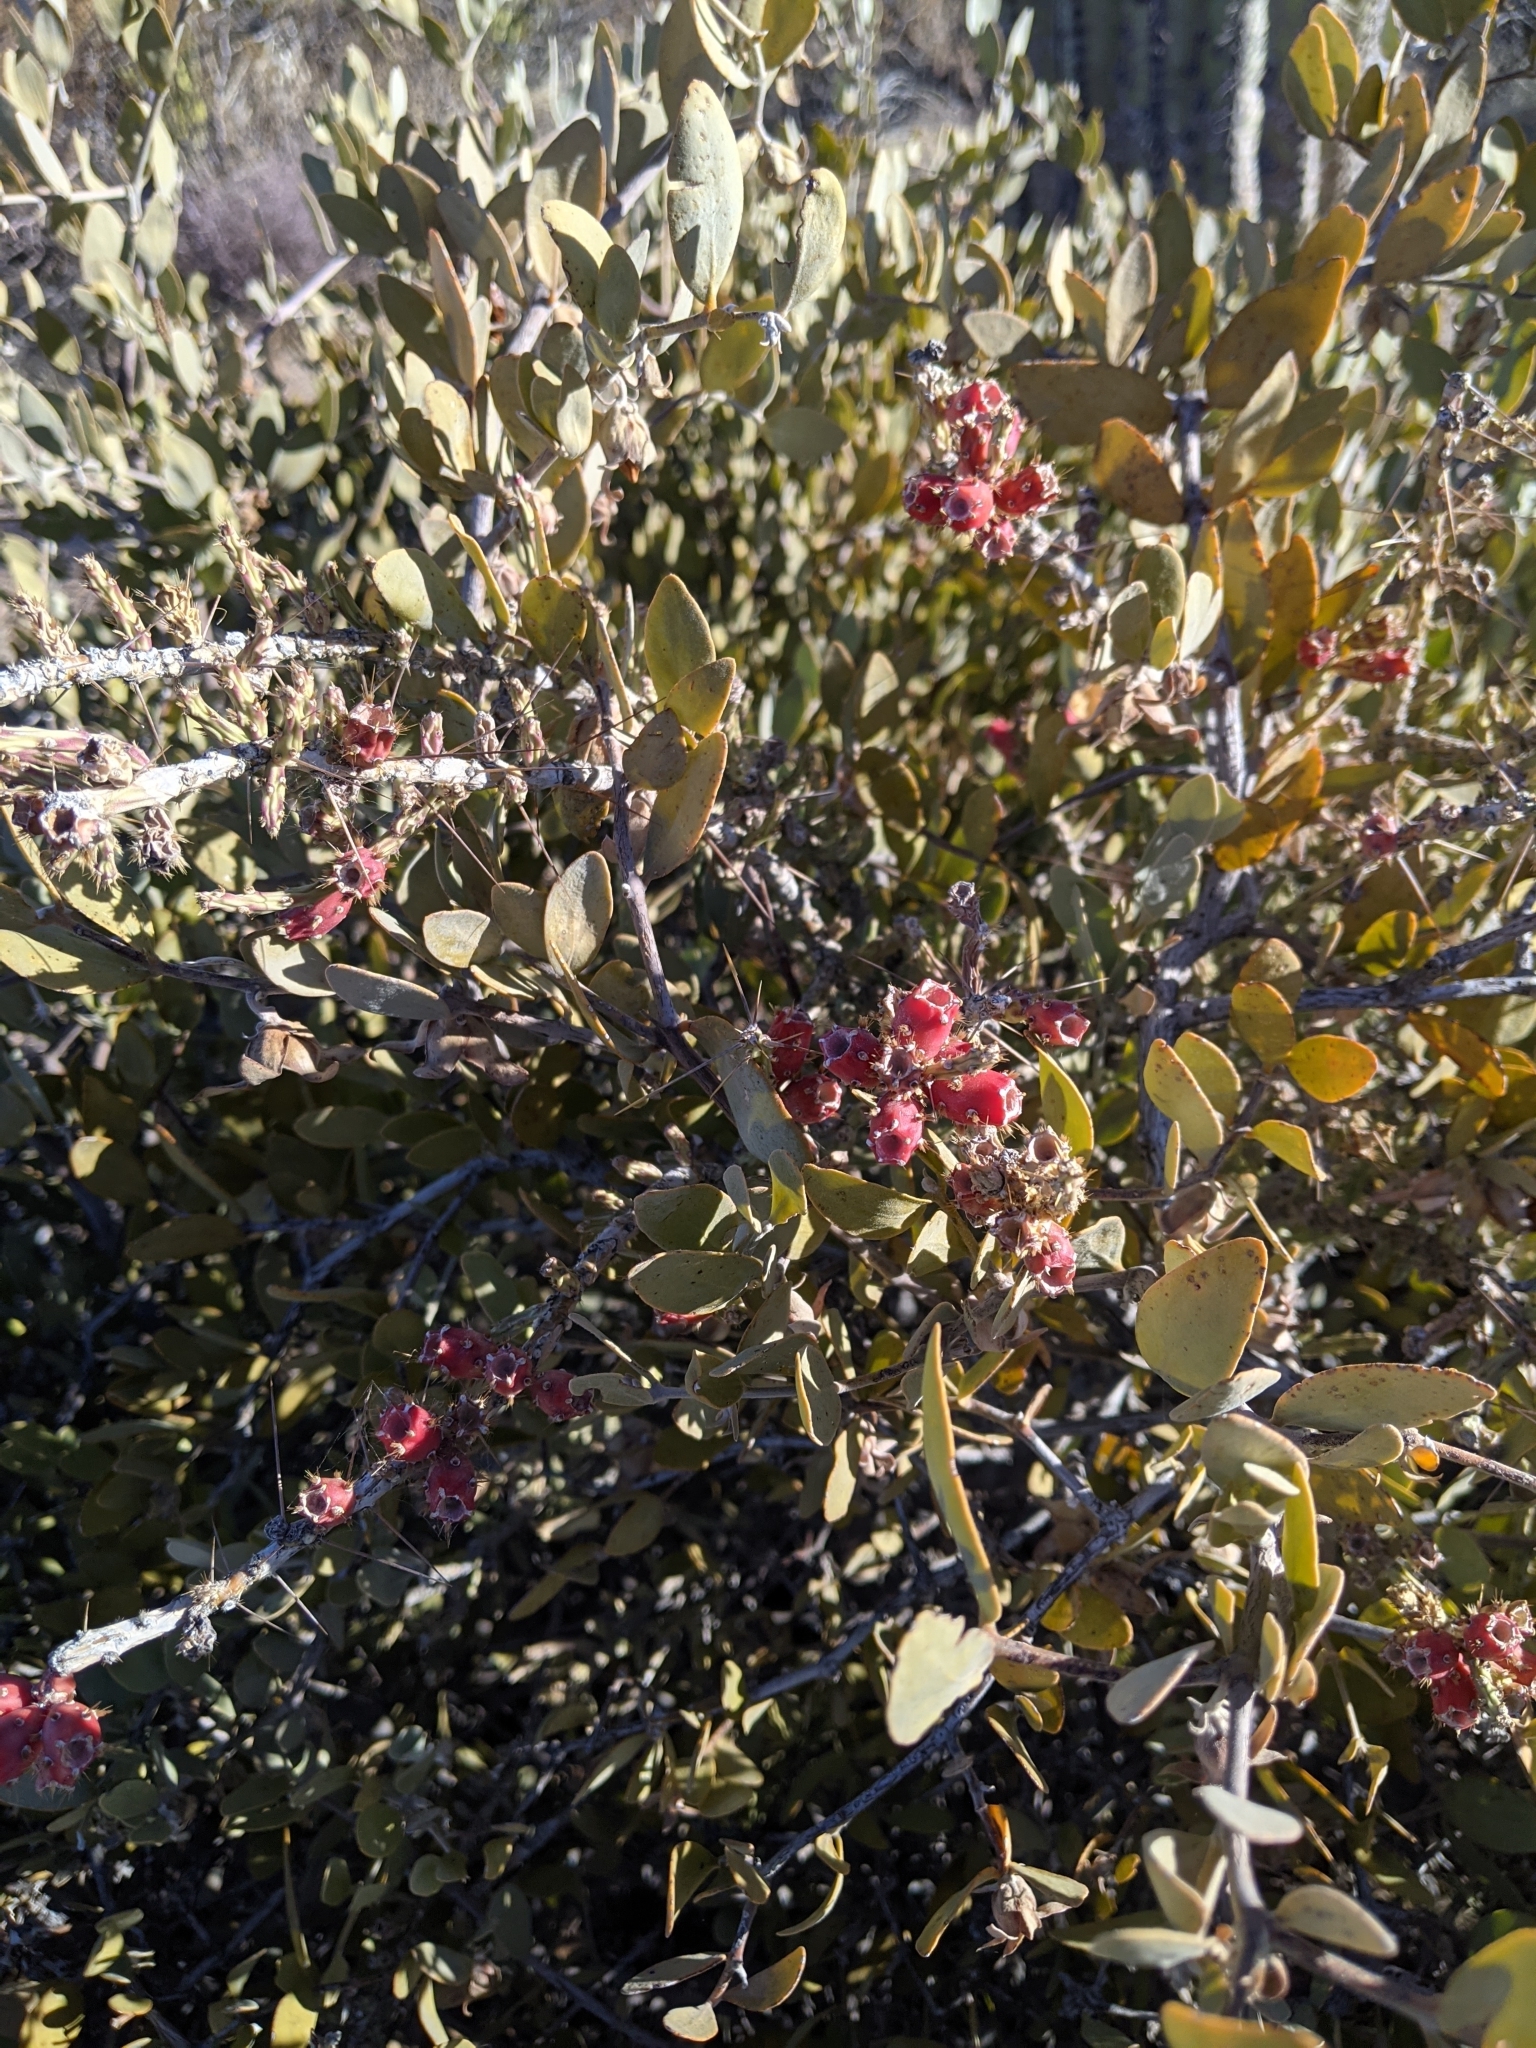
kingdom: Plantae
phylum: Tracheophyta
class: Magnoliopsida
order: Caryophyllales
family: Cactaceae
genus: Cylindropuntia
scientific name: Cylindropuntia leptocaulis
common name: Christmas cactus
